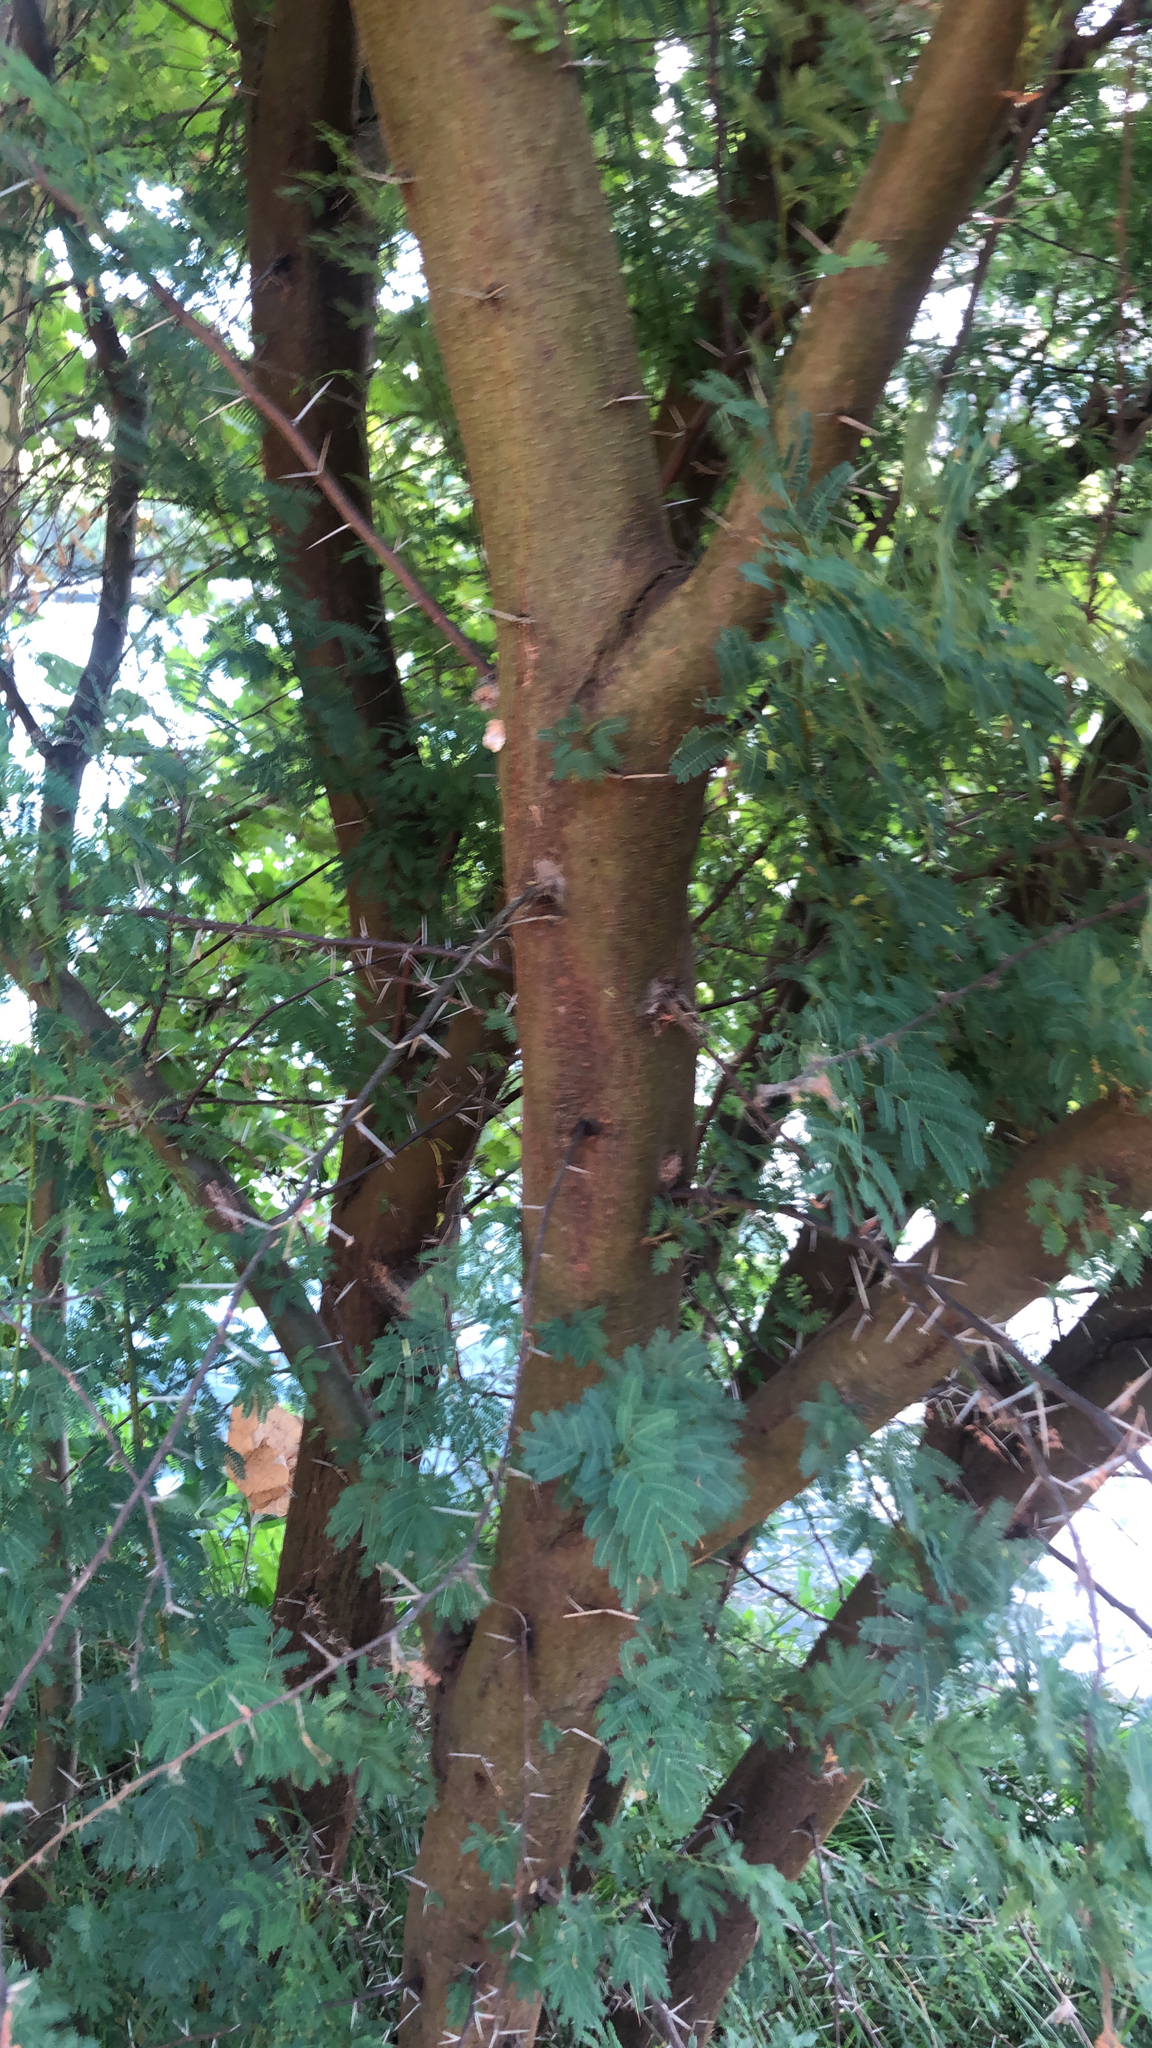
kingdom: Plantae
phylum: Tracheophyta
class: Magnoliopsida
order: Fabales
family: Fabaceae
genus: Vachellia
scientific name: Vachellia farnesiana
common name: Sweet acacia
